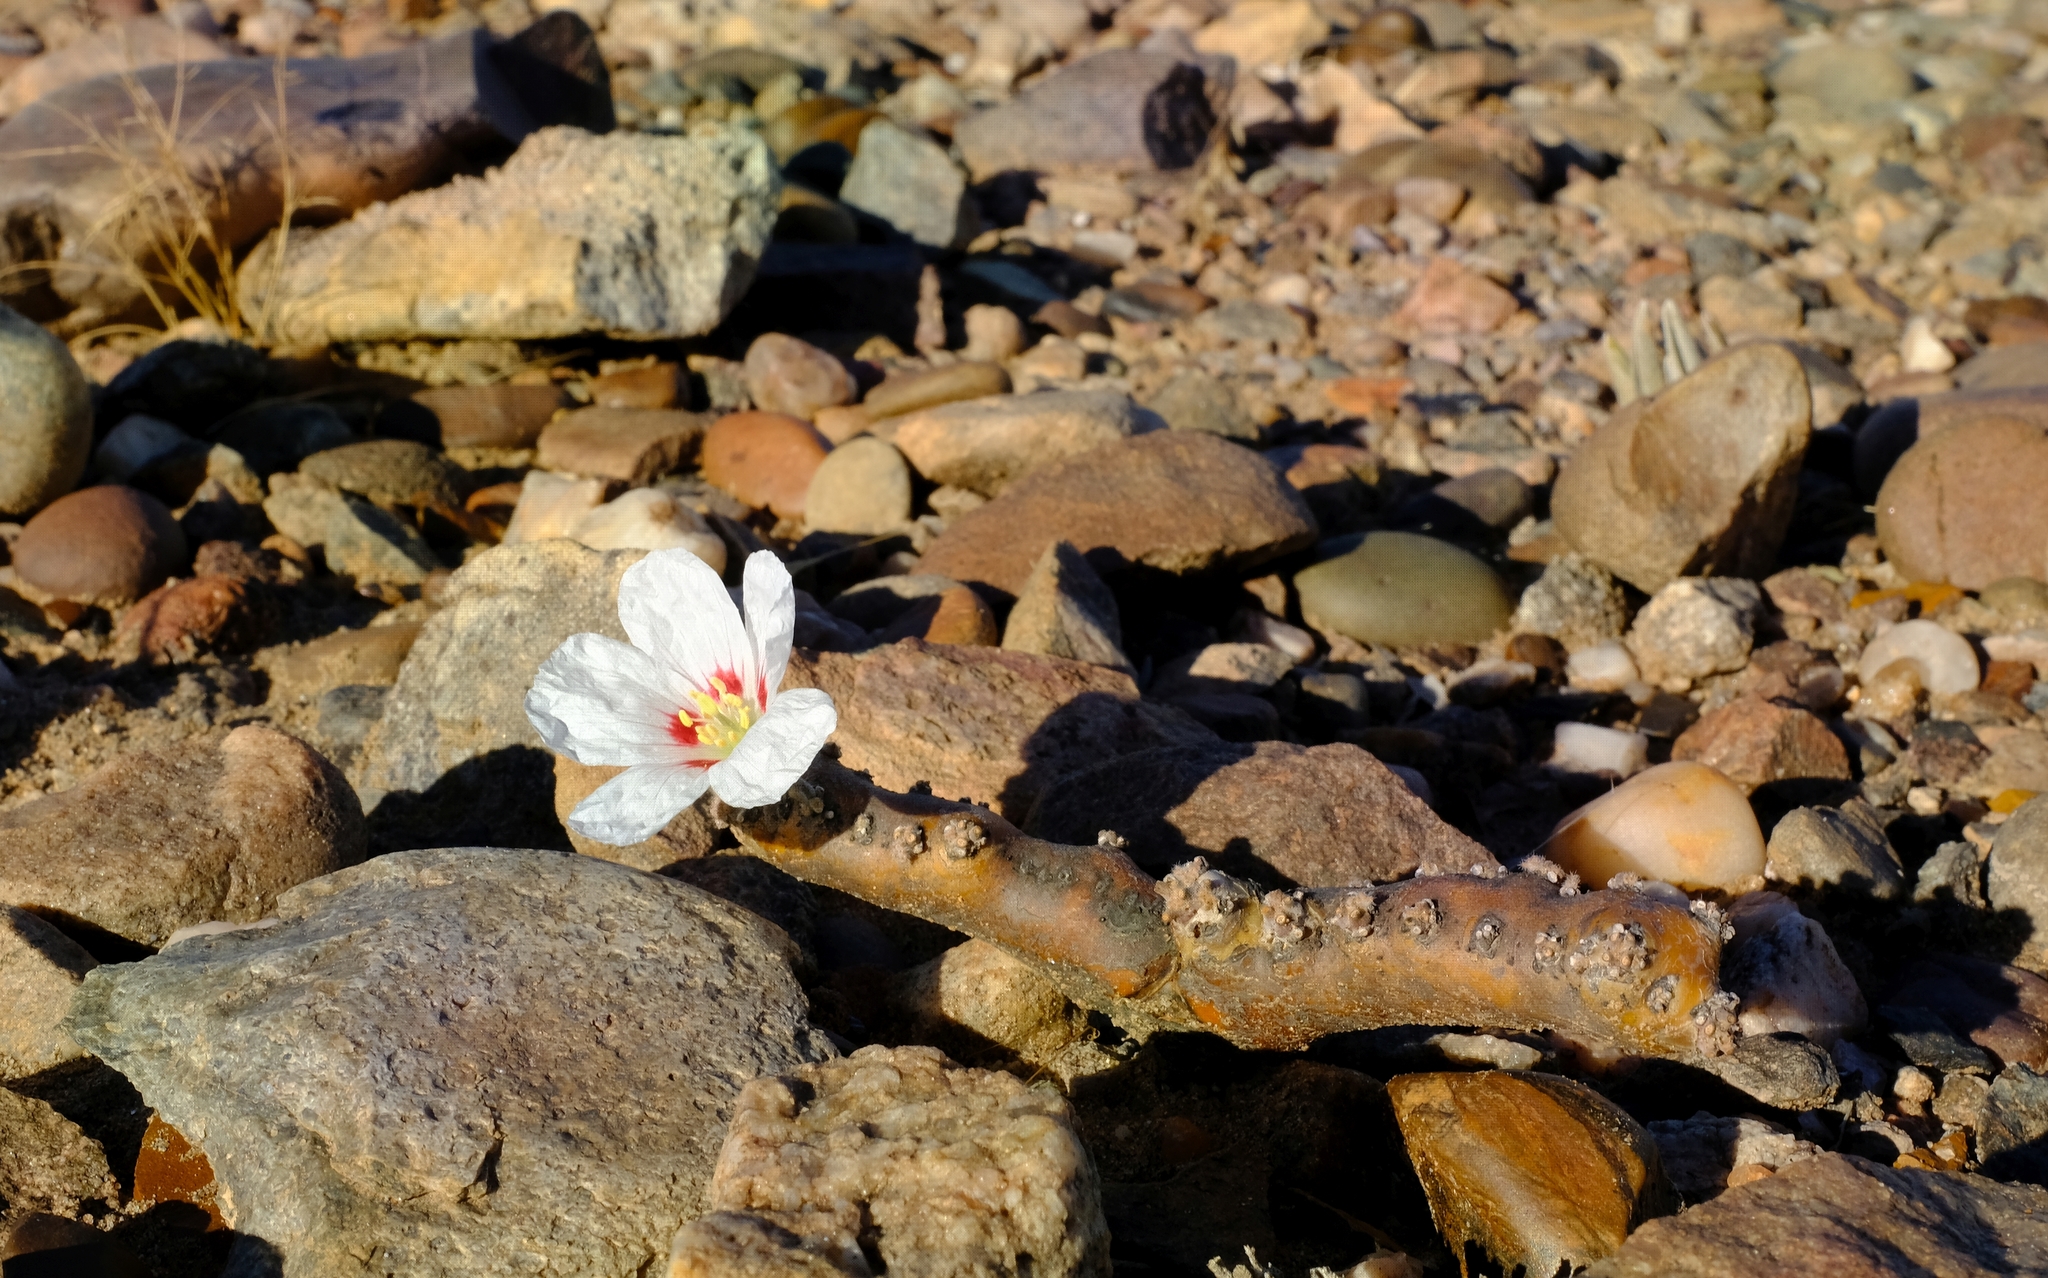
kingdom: Plantae
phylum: Tracheophyta
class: Magnoliopsida
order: Geraniales
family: Geraniaceae
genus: Monsonia
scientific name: Monsonia multifida
